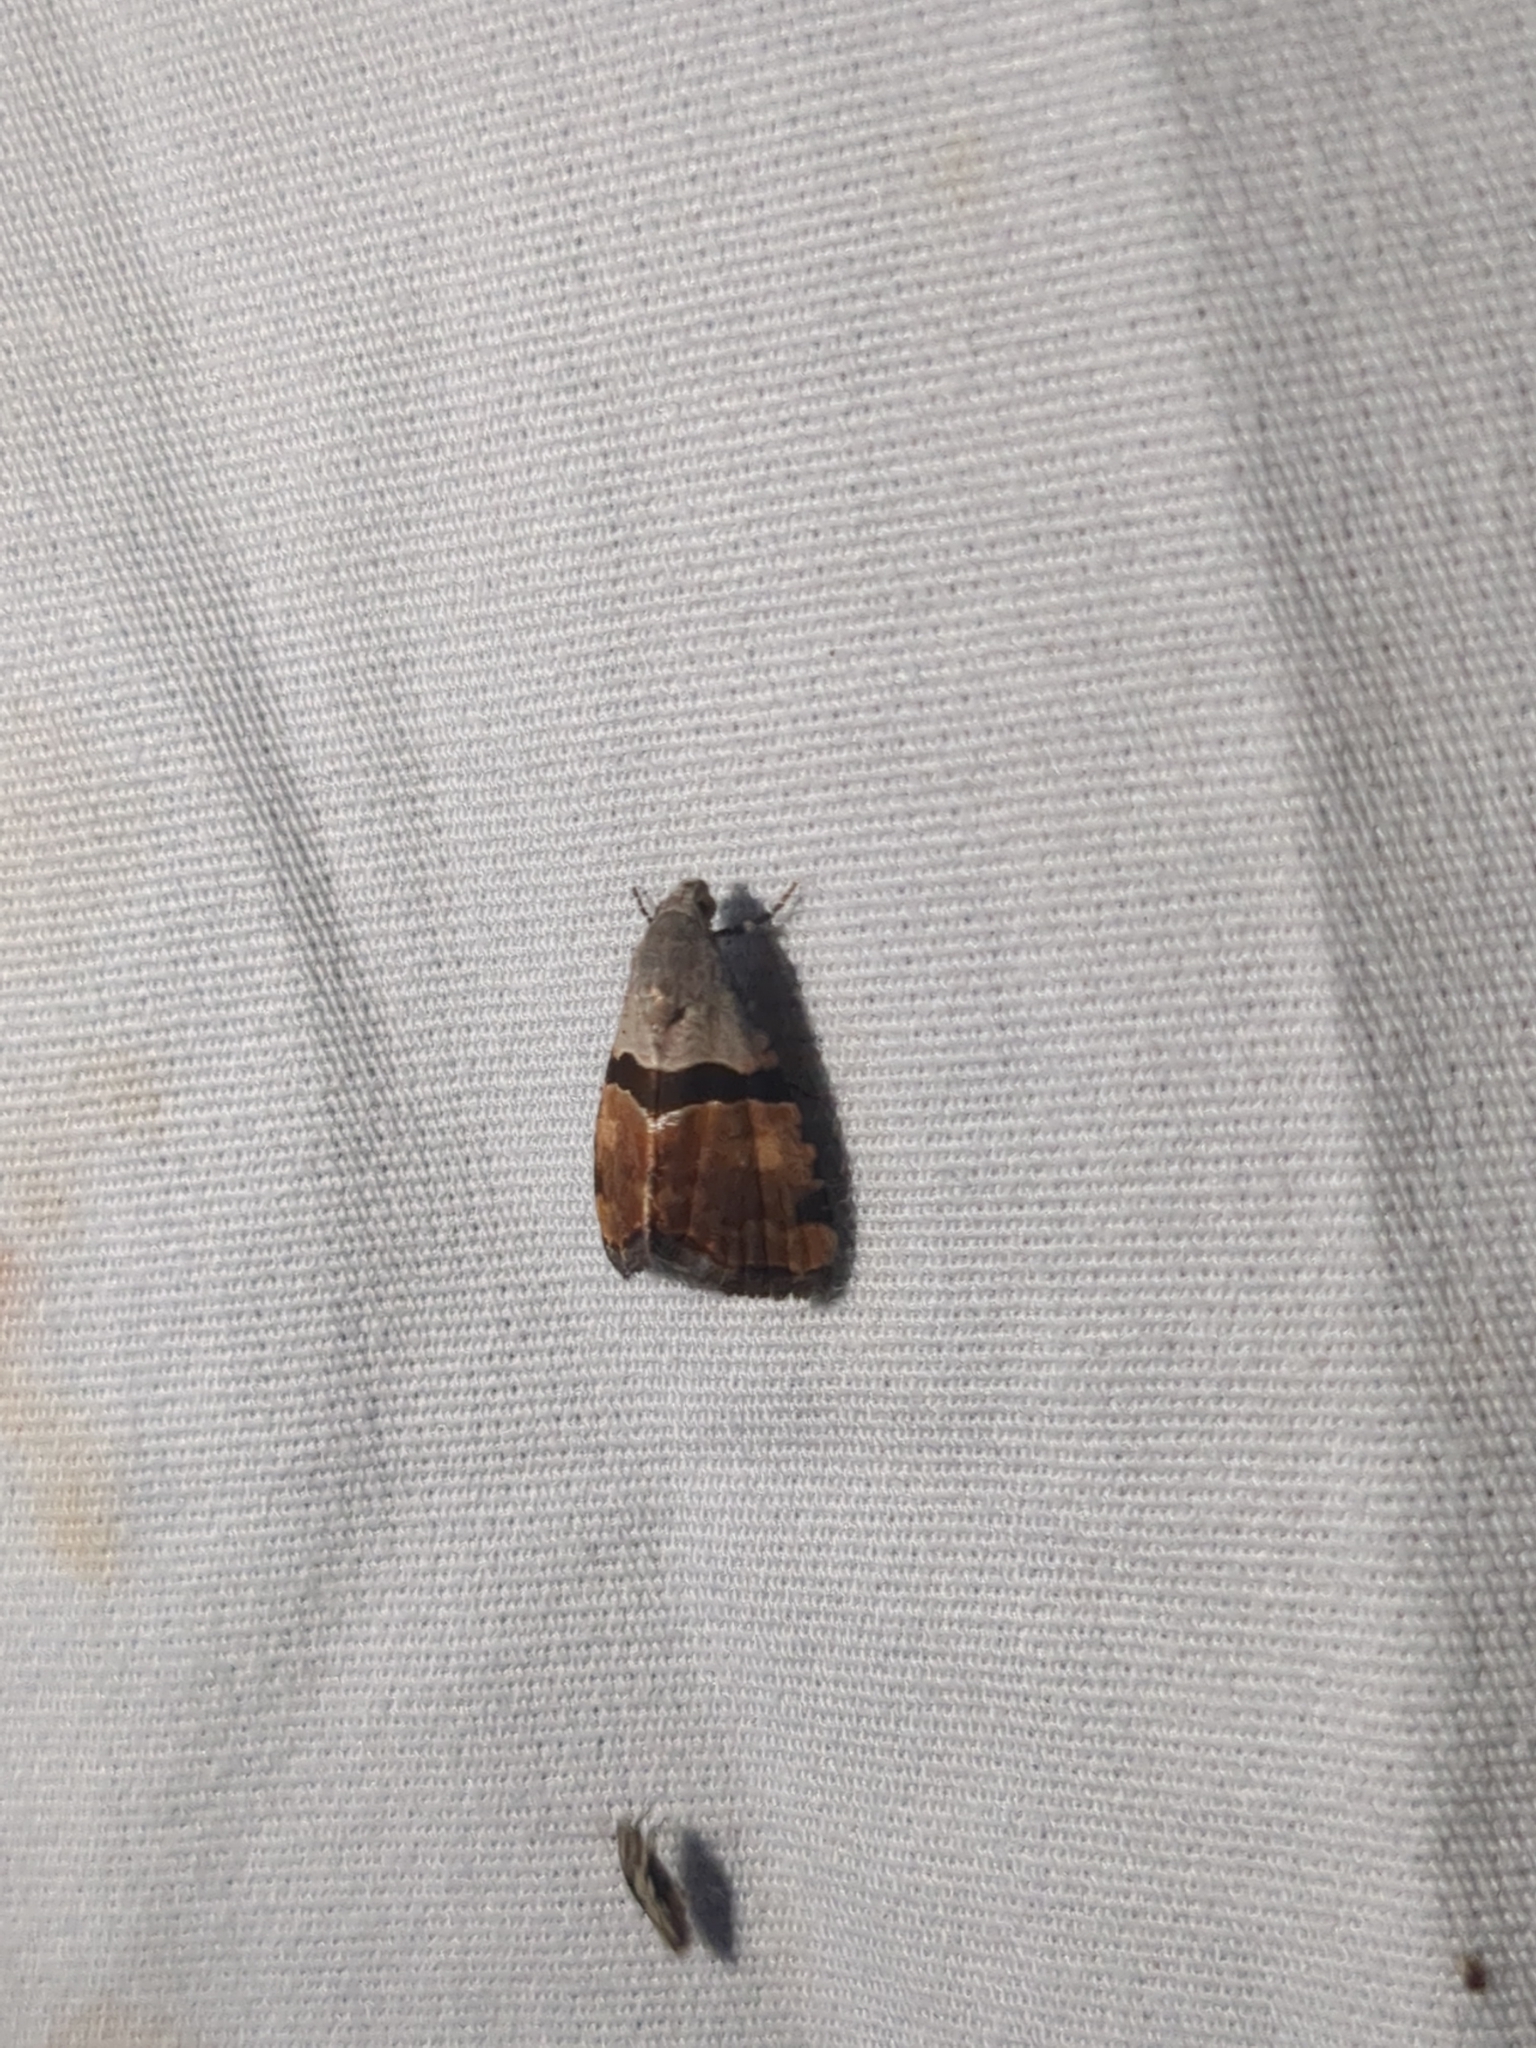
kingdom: Animalia
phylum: Arthropoda
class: Insecta
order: Lepidoptera
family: Noctuidae
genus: Cobubatha
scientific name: Cobubatha lixiva
